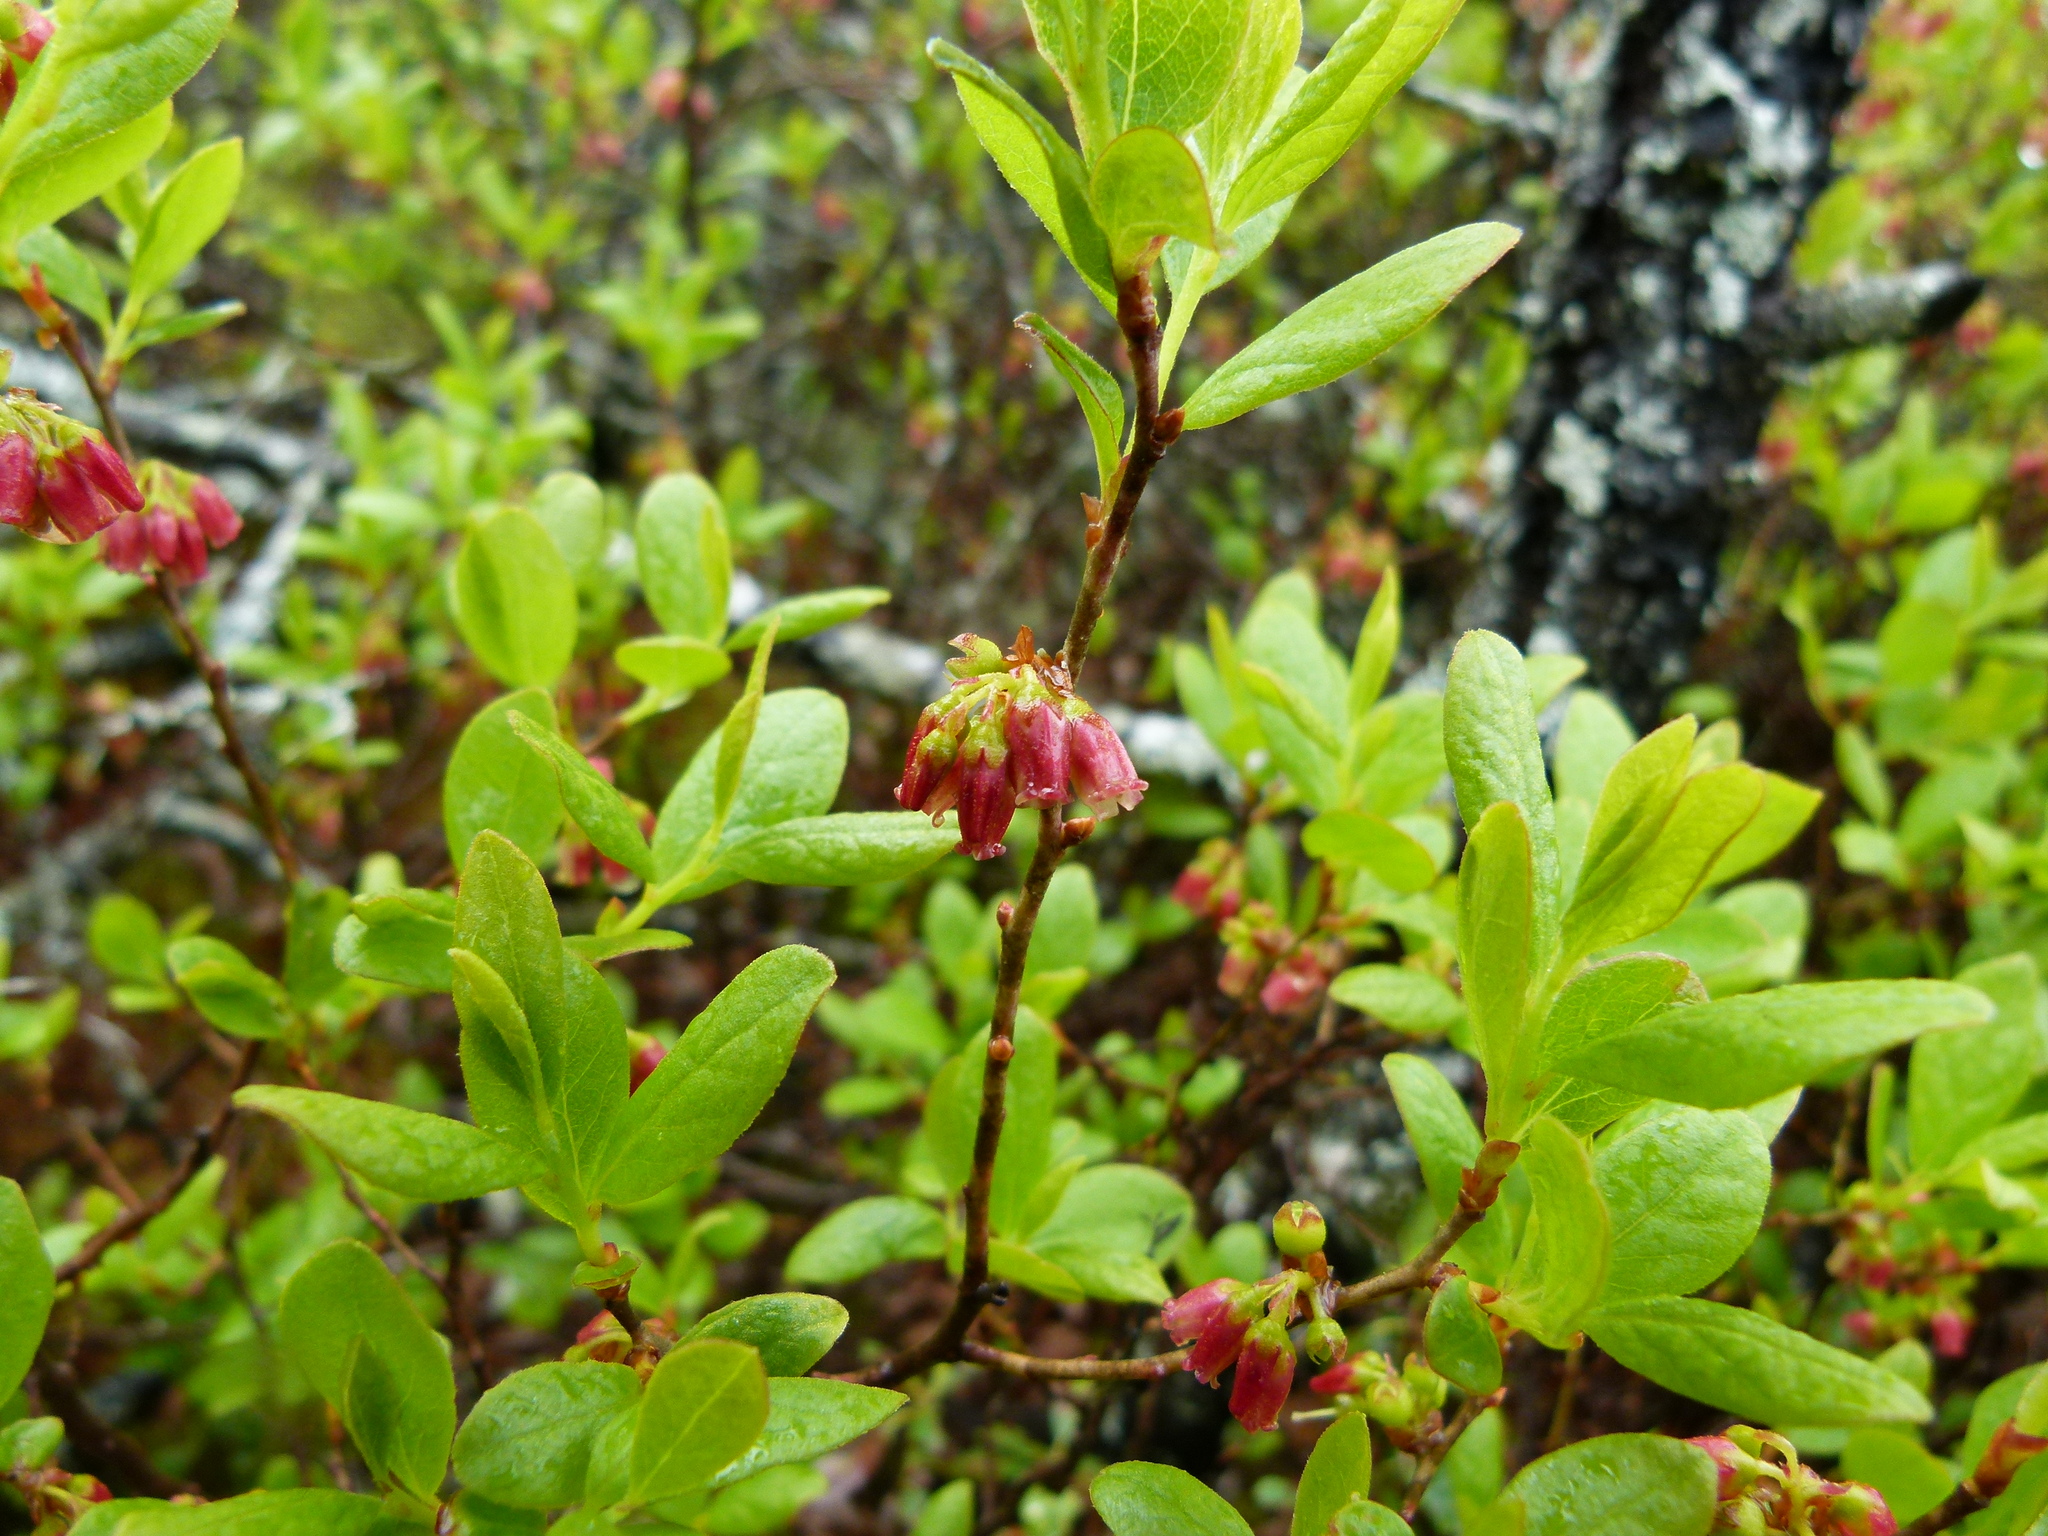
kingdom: Plantae
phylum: Tracheophyta
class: Magnoliopsida
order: Ericales
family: Ericaceae
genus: Gaylussacia
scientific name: Gaylussacia baccata
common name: Black huckleberry
